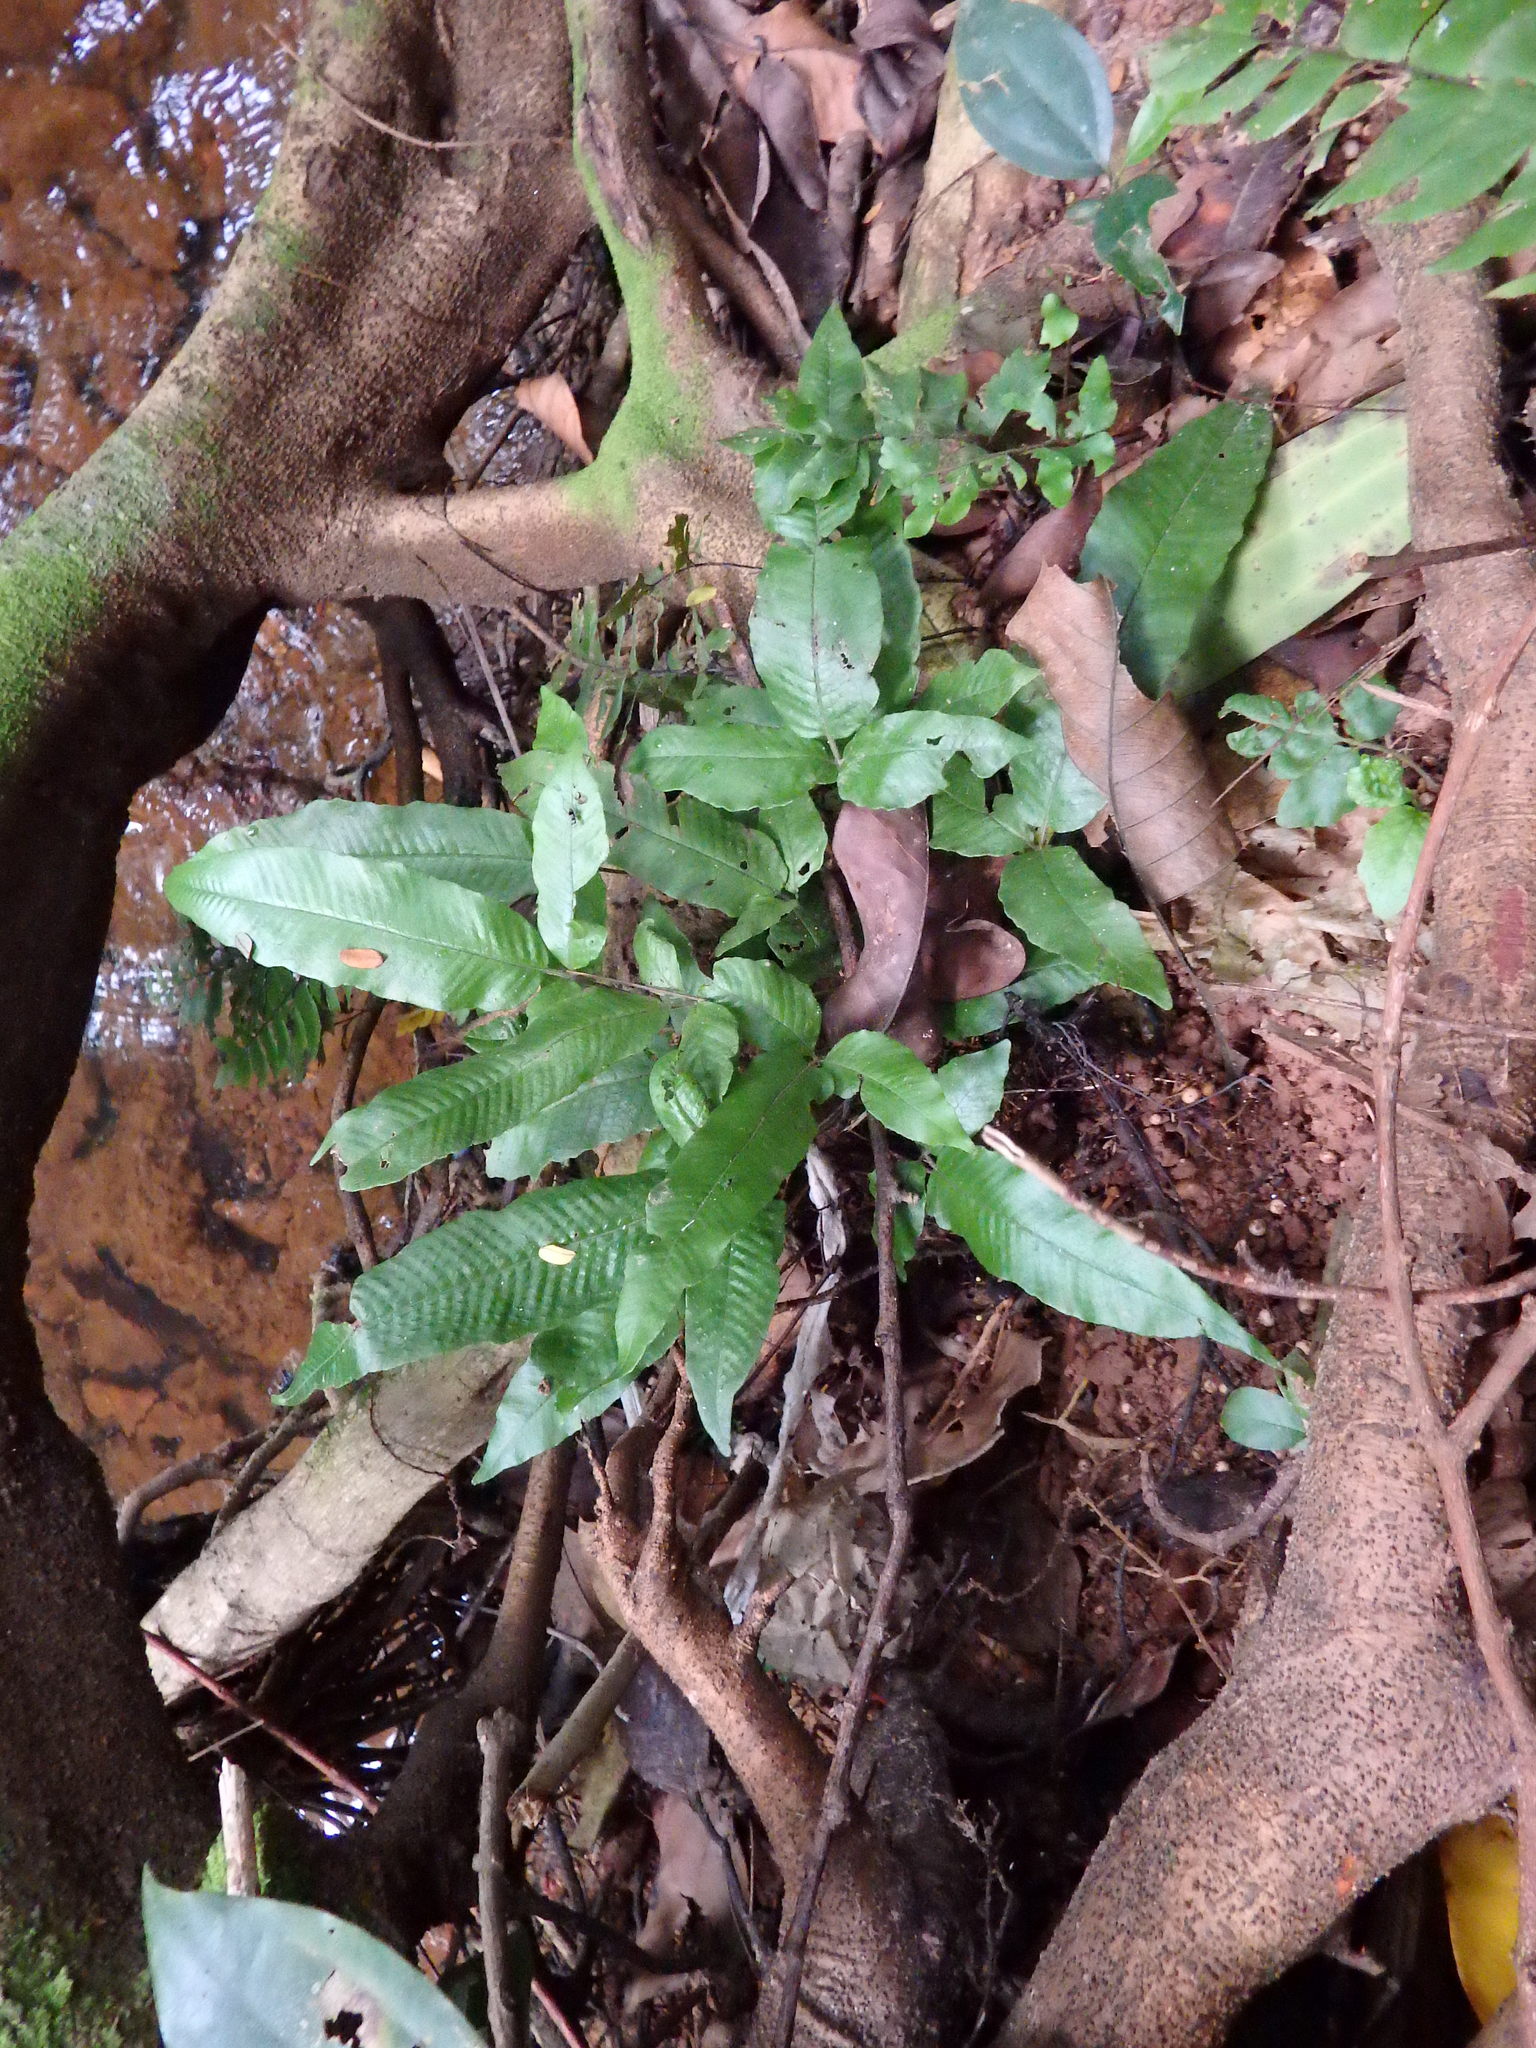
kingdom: Plantae
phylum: Tracheophyta
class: Polypodiopsida
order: Polypodiales
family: Thelypteridaceae
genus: Grypothrix
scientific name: Grypothrix triphylla
